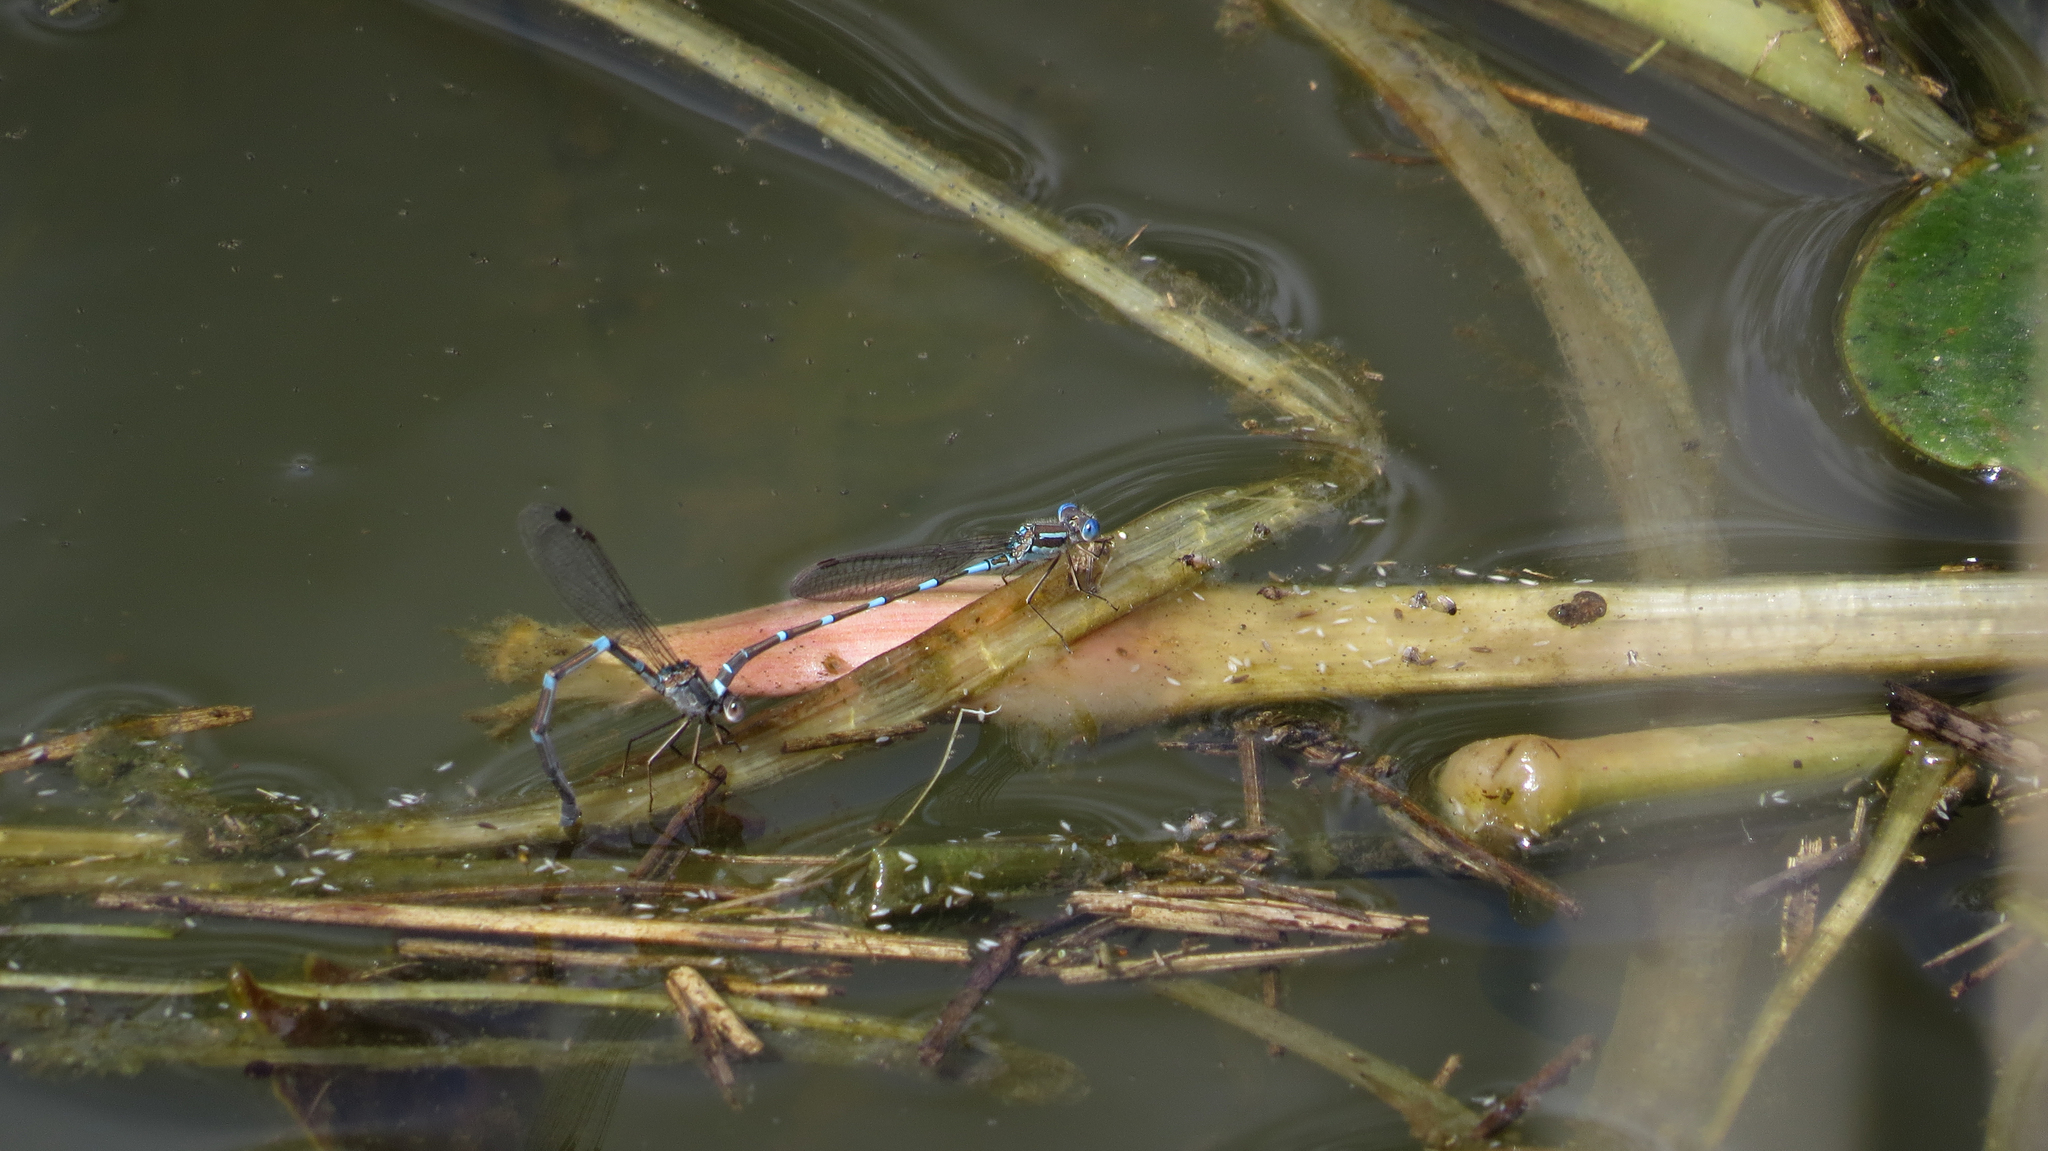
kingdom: Animalia
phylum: Arthropoda
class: Insecta
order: Odonata
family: Lestidae
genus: Austrolestes
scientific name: Austrolestes leda
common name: Wandering ringtail
